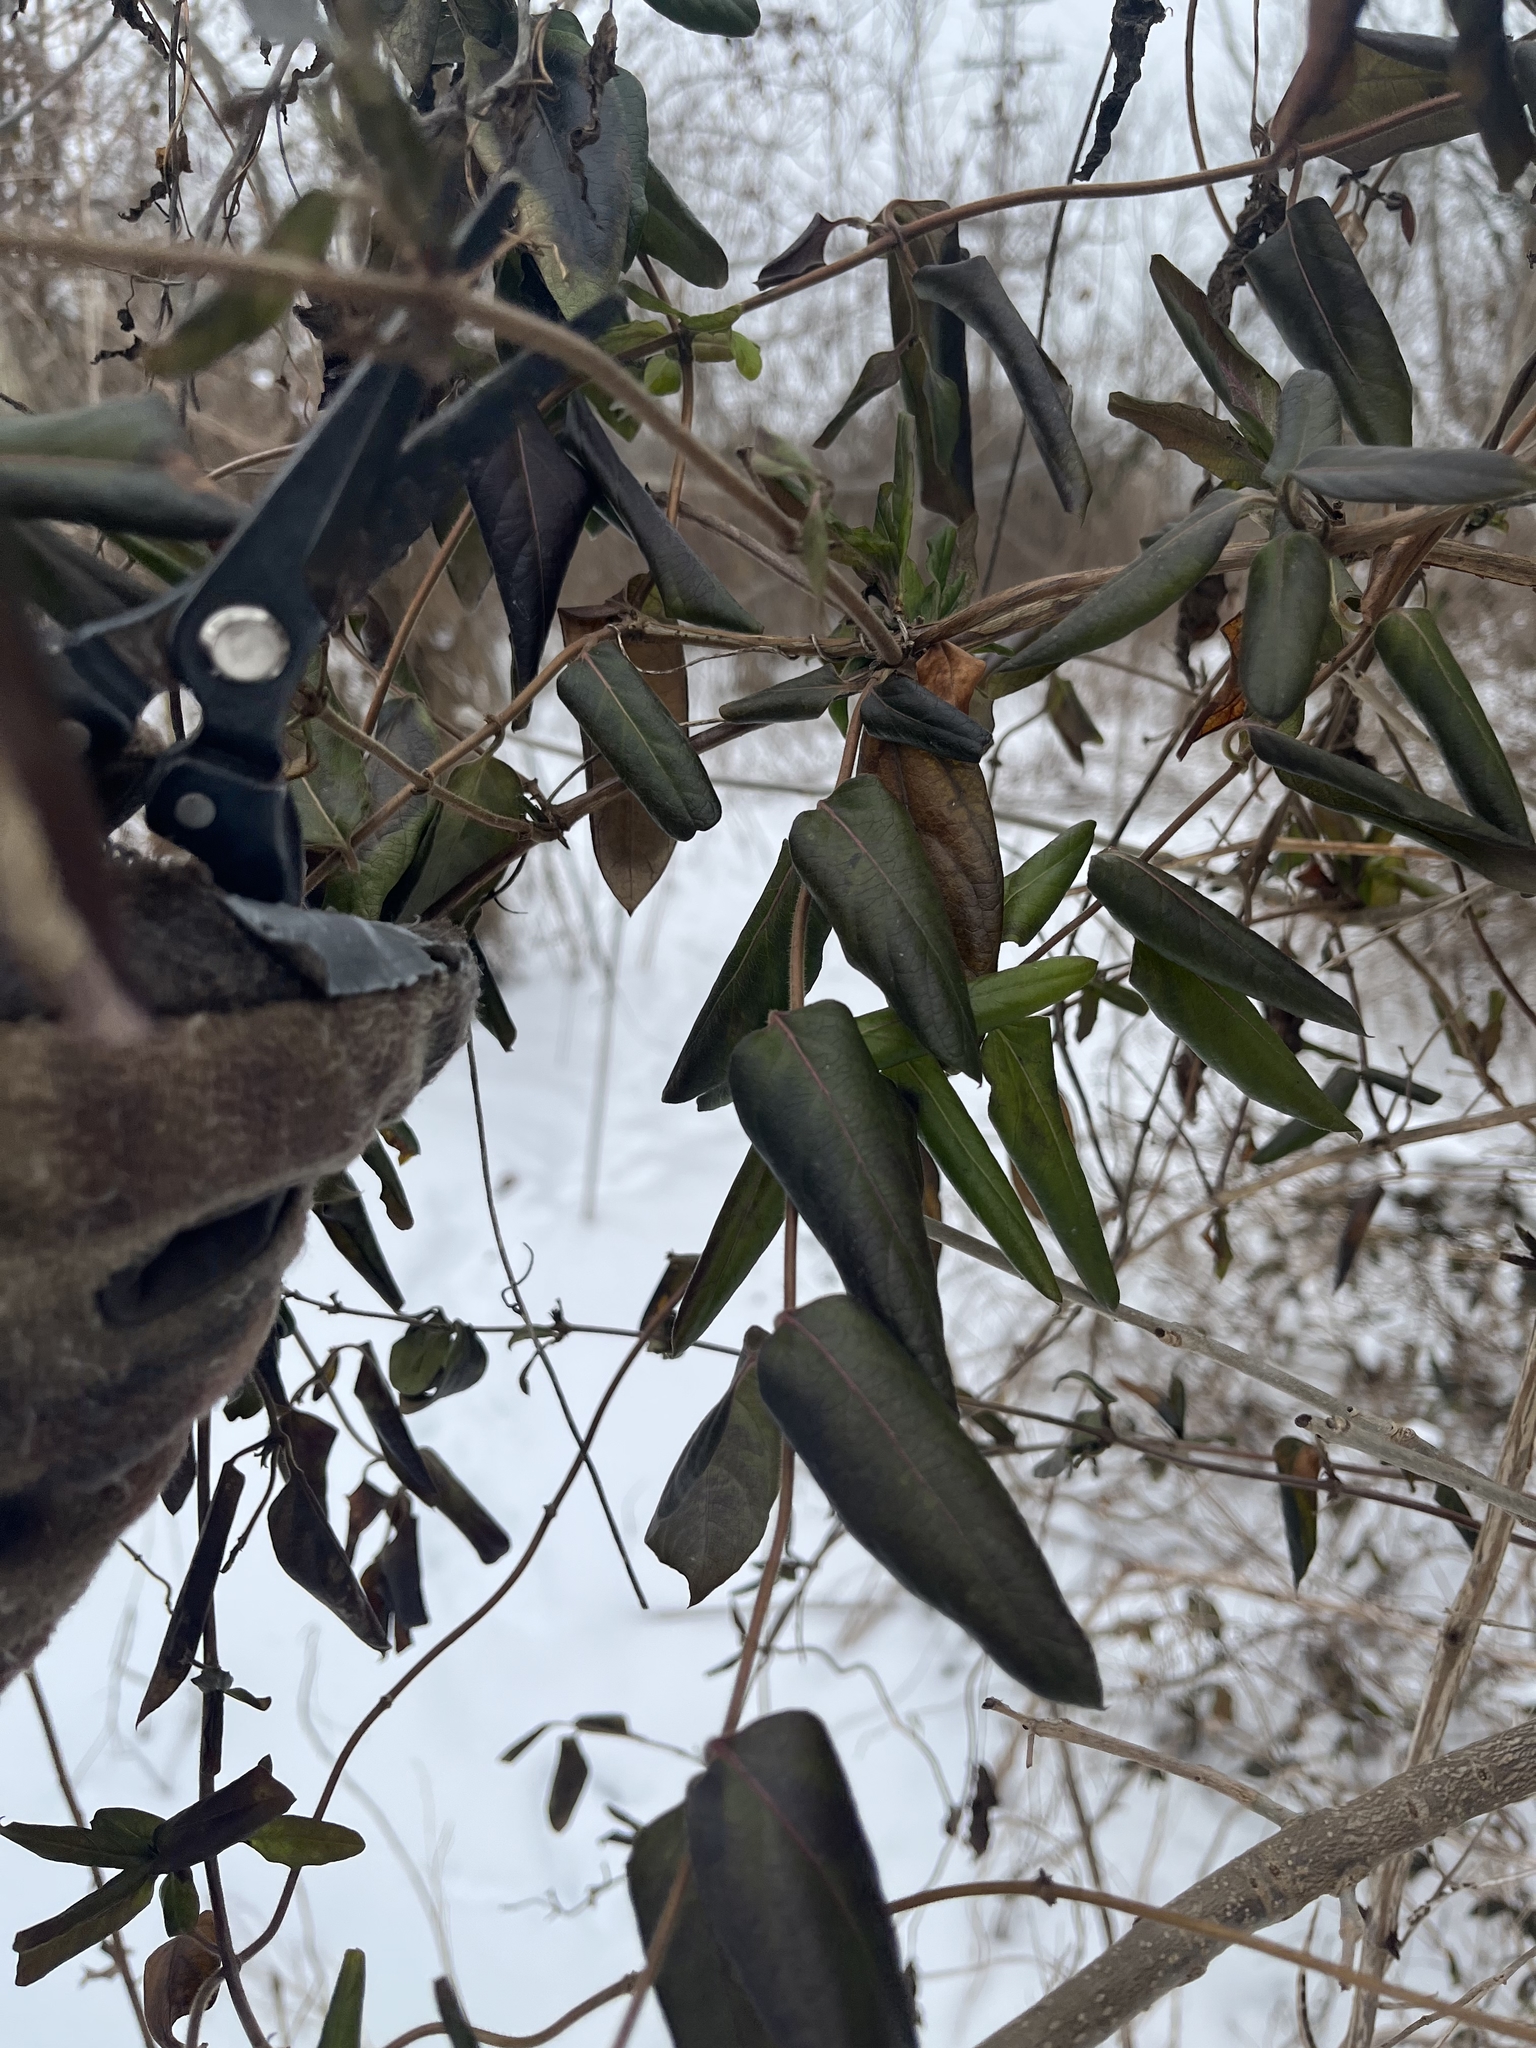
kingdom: Plantae
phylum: Tracheophyta
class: Magnoliopsida
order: Dipsacales
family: Caprifoliaceae
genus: Lonicera
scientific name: Lonicera japonica
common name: Japanese honeysuckle
